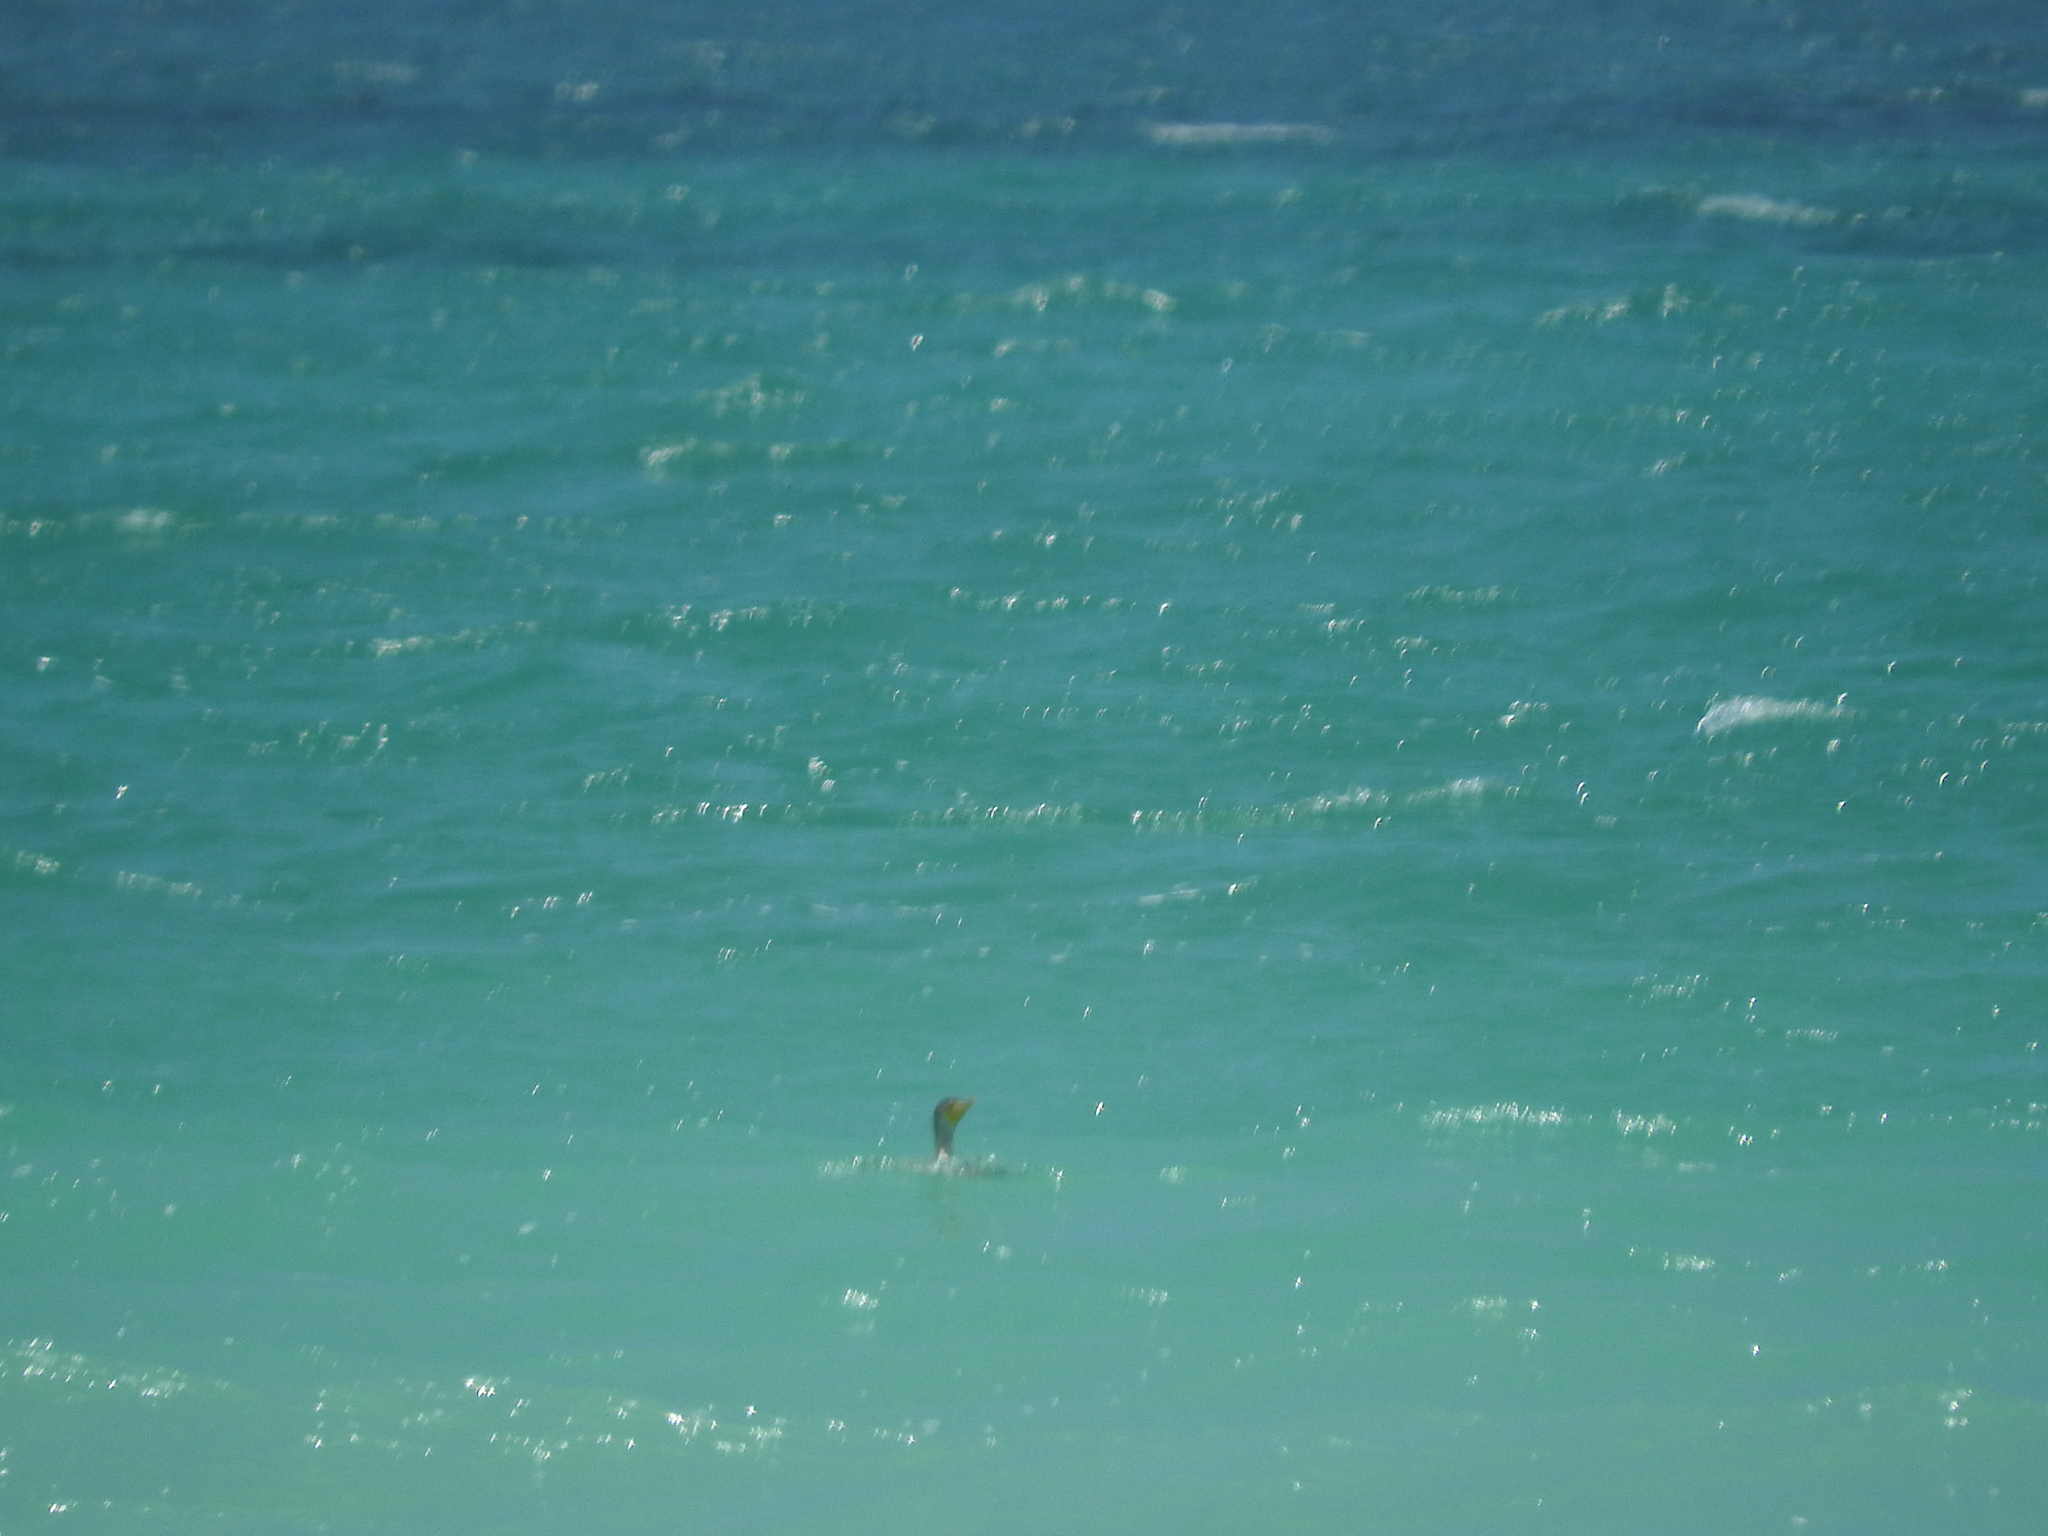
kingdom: Animalia
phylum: Chordata
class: Aves
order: Suliformes
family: Phalacrocoracidae
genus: Phalacrocorax
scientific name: Phalacrocorax auritus
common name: Double-crested cormorant
